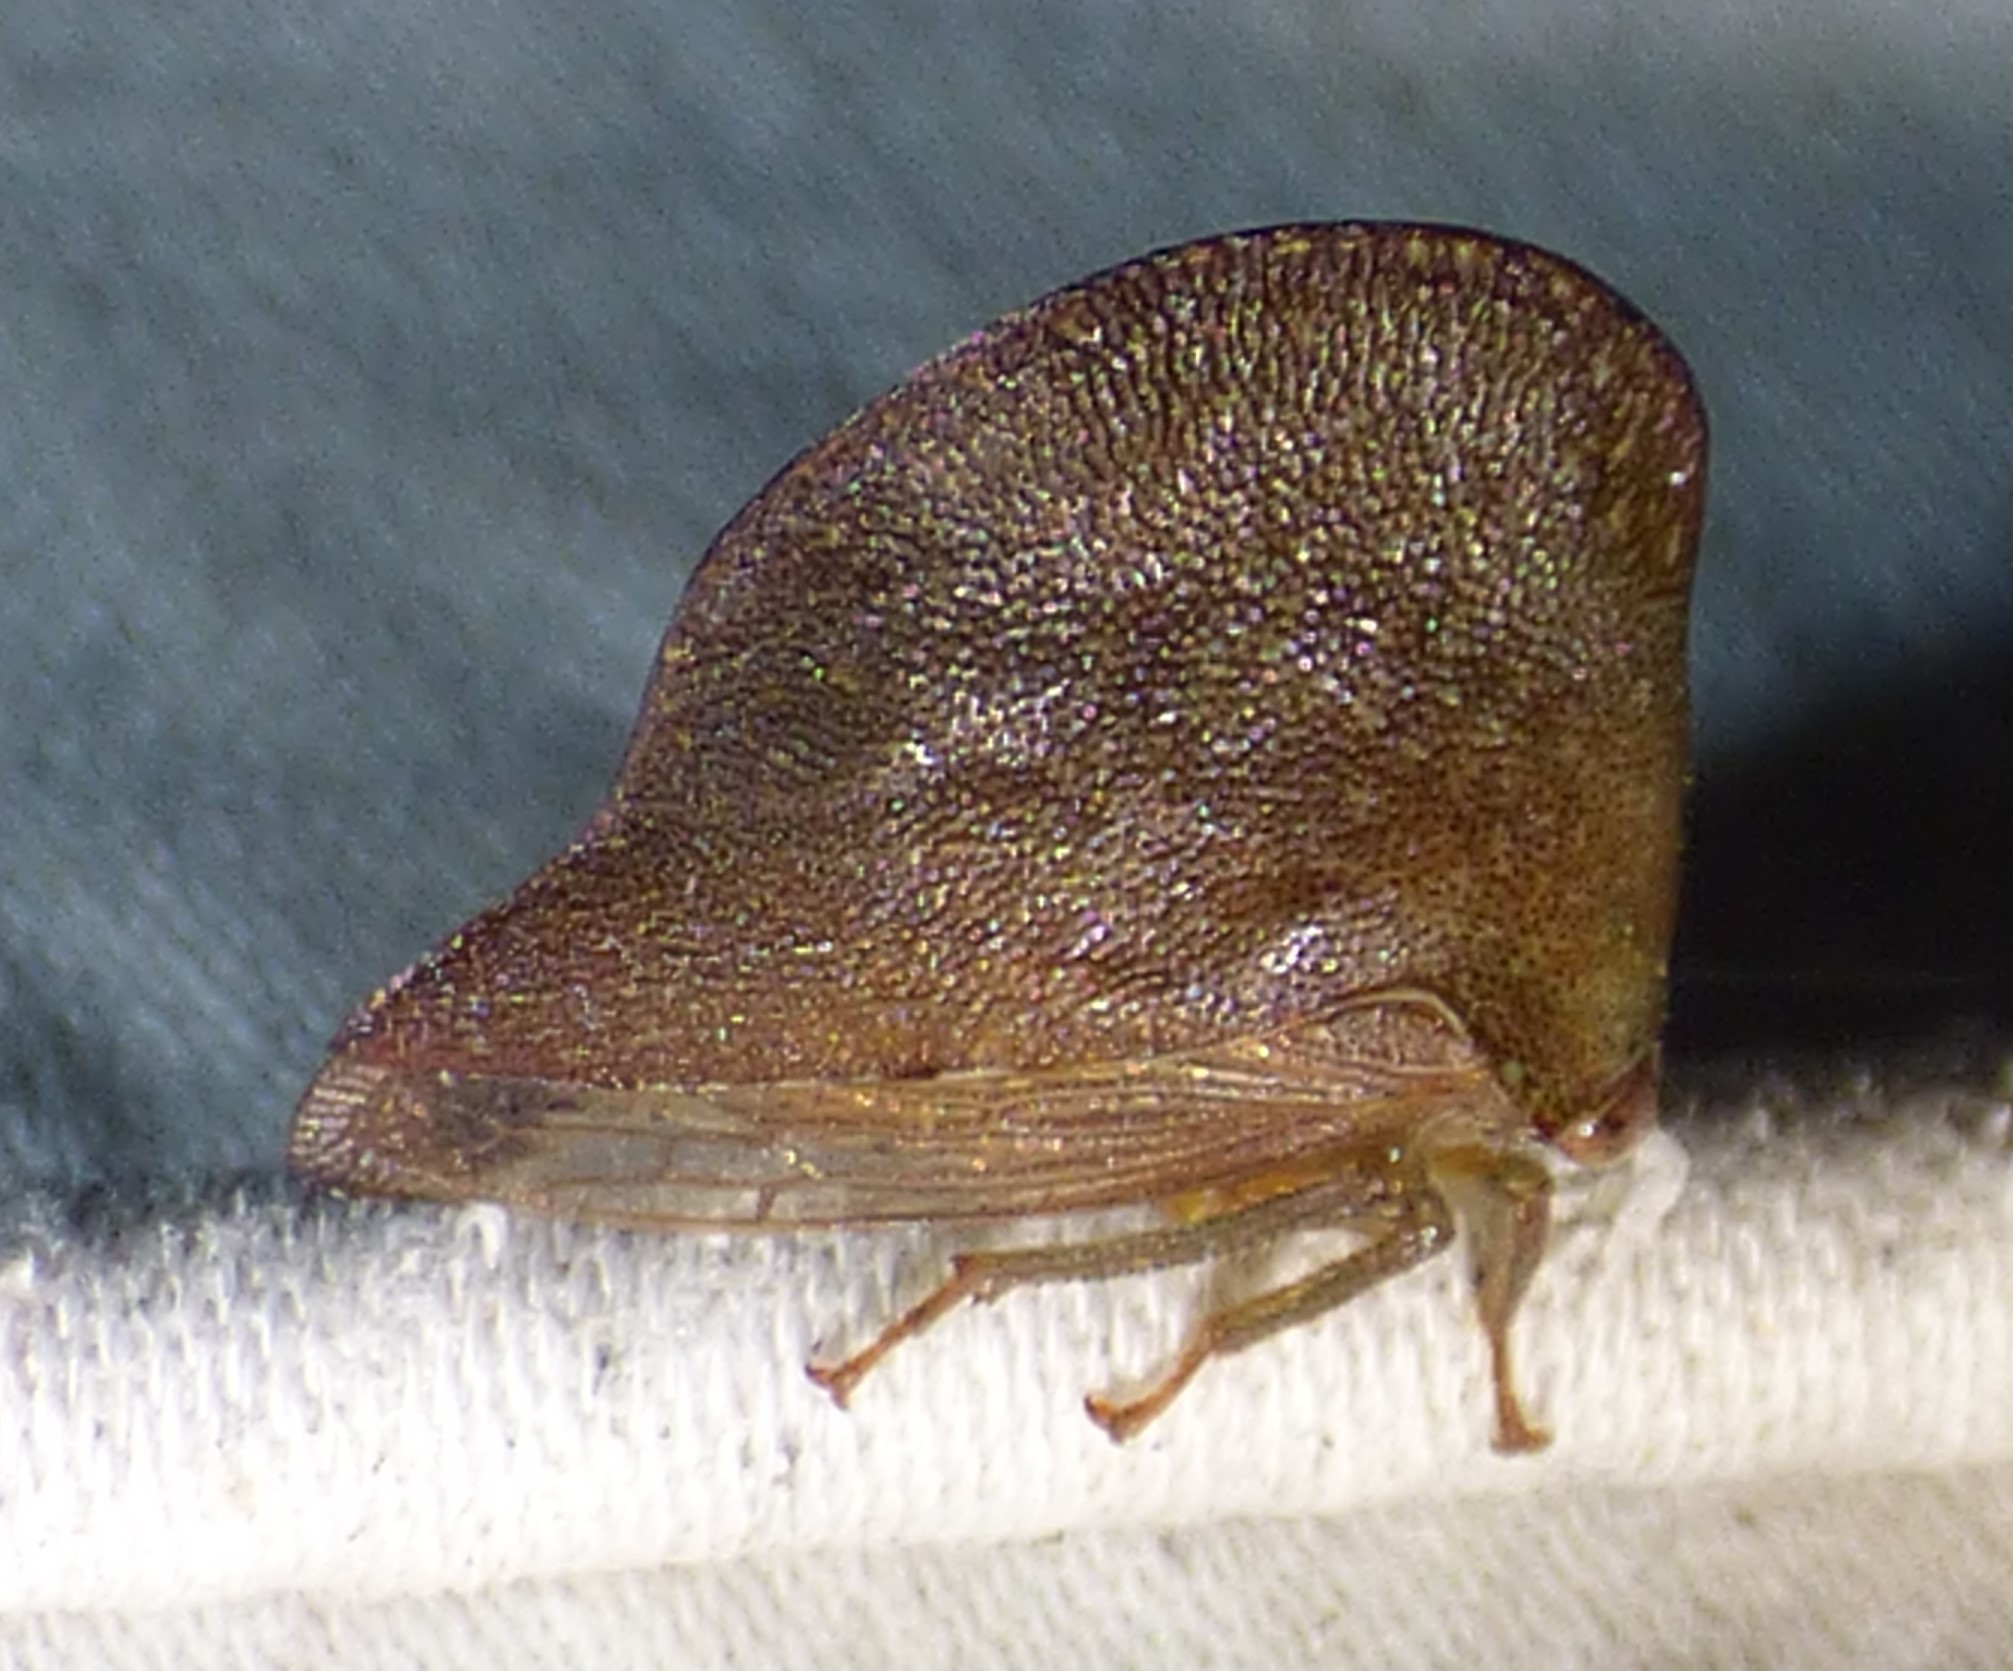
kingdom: Animalia
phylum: Arthropoda
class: Insecta
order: Hemiptera
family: Membracidae
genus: Telamona
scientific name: Telamona extrema
